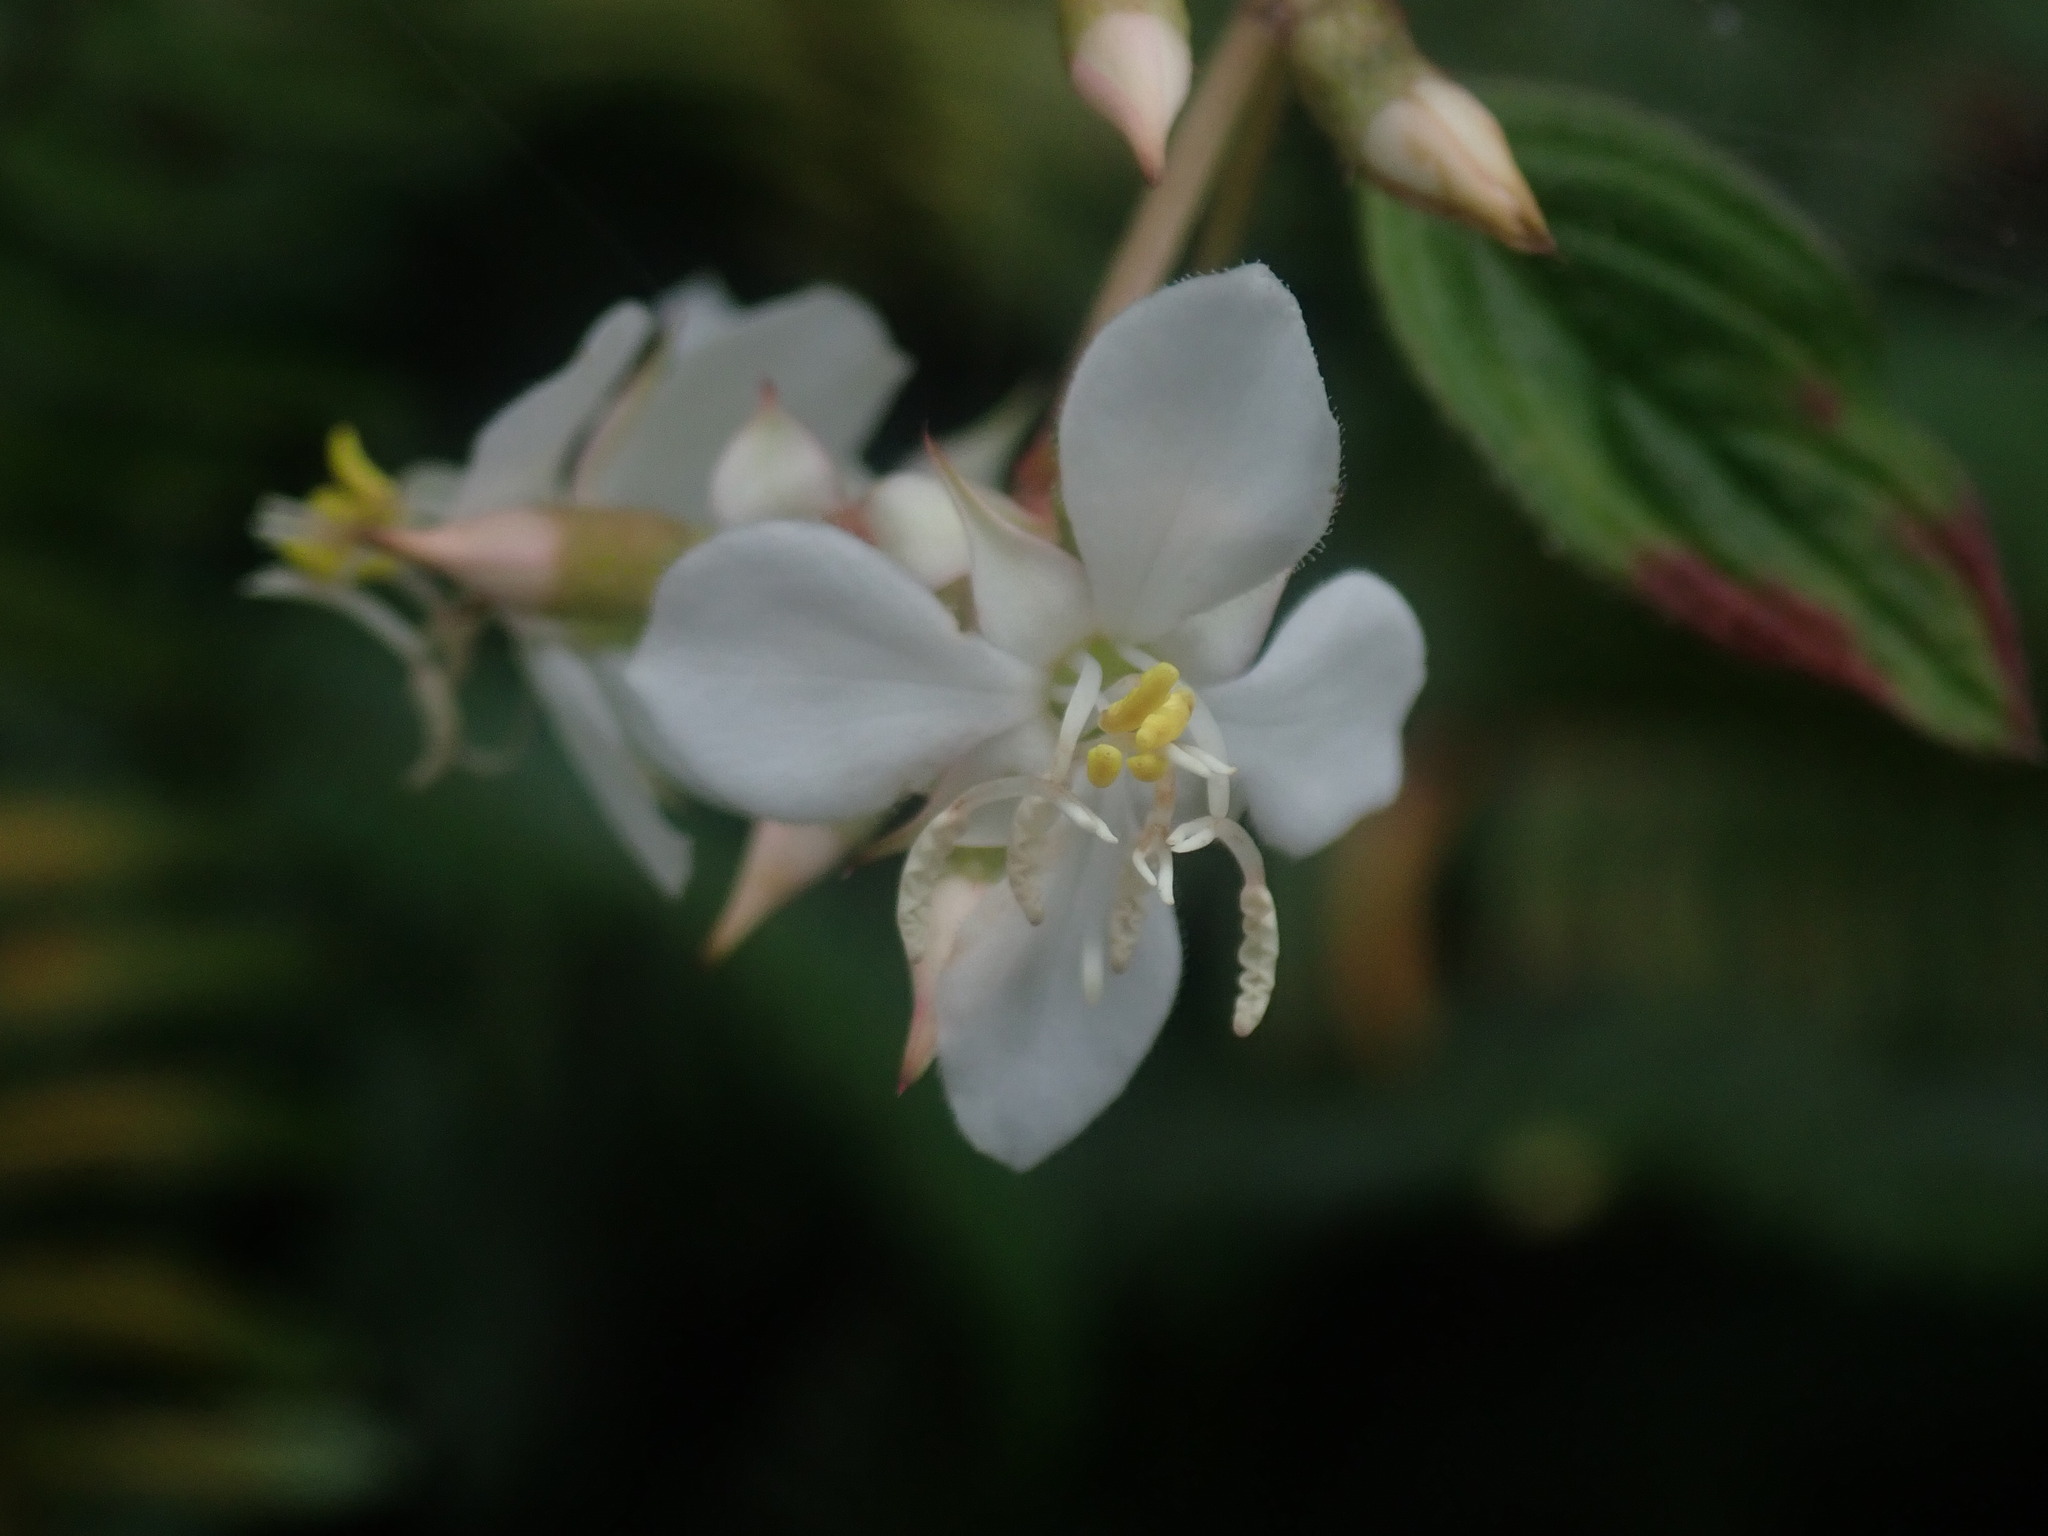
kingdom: Plantae
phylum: Tracheophyta
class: Magnoliopsida
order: Myrtales
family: Melastomataceae
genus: Heterocentron
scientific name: Heterocentron subtriplinervium
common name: Pearl flower
